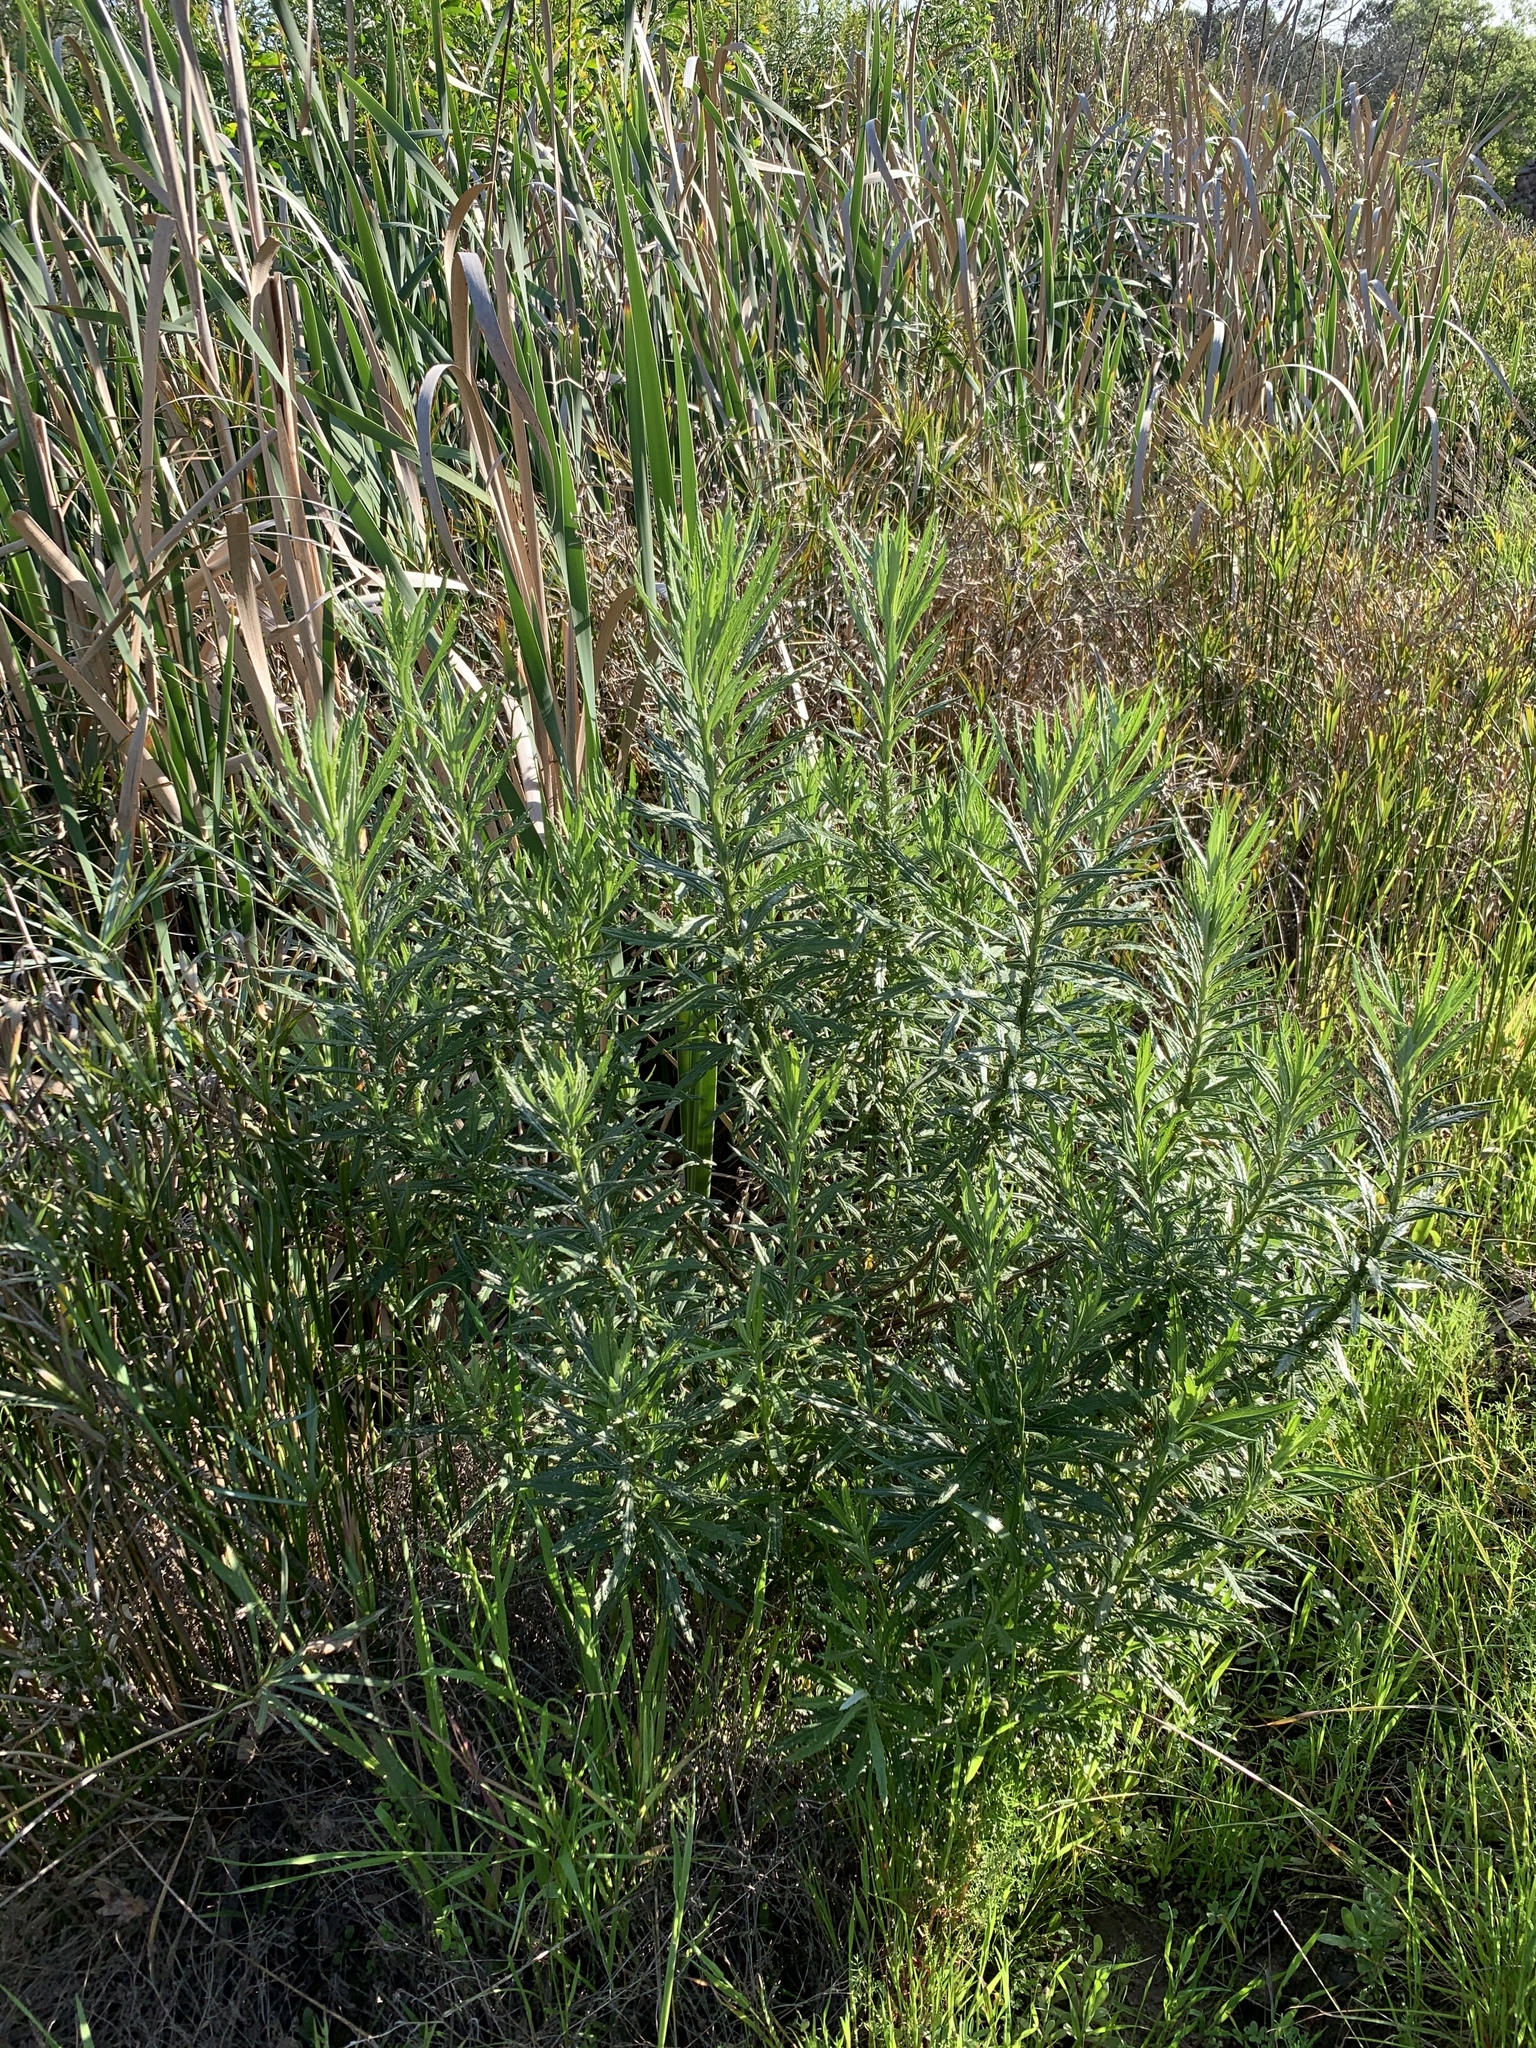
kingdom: Plantae
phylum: Tracheophyta
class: Magnoliopsida
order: Asterales
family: Asteraceae
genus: Senecio
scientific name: Senecio pterophorus
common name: Shoddy ragwort
